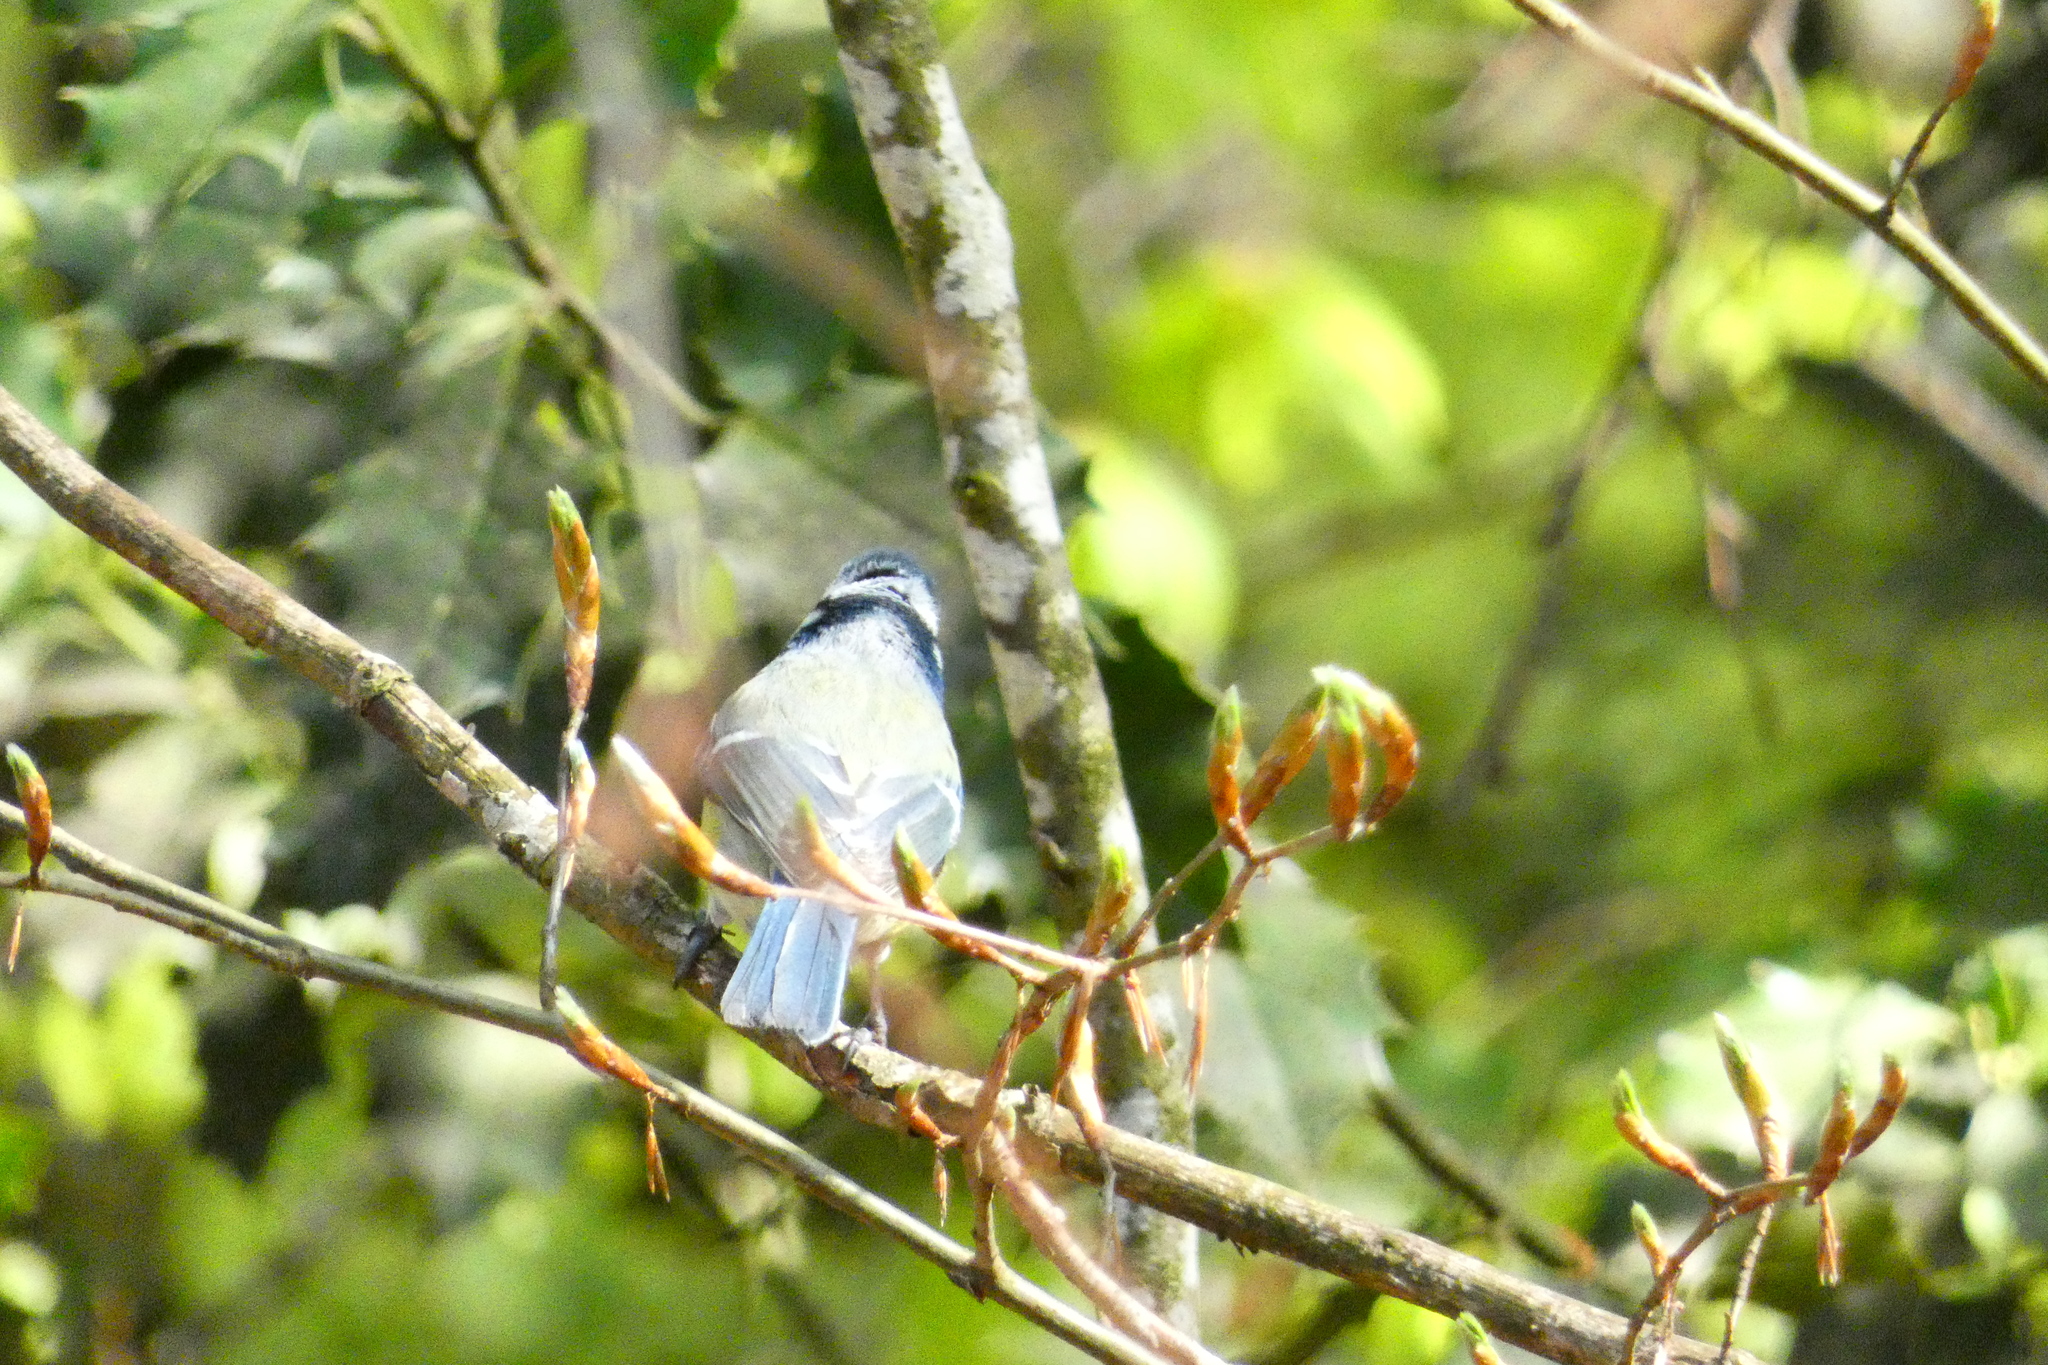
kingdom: Animalia
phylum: Chordata
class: Aves
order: Passeriformes
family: Paridae
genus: Cyanistes
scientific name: Cyanistes caeruleus
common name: Eurasian blue tit
